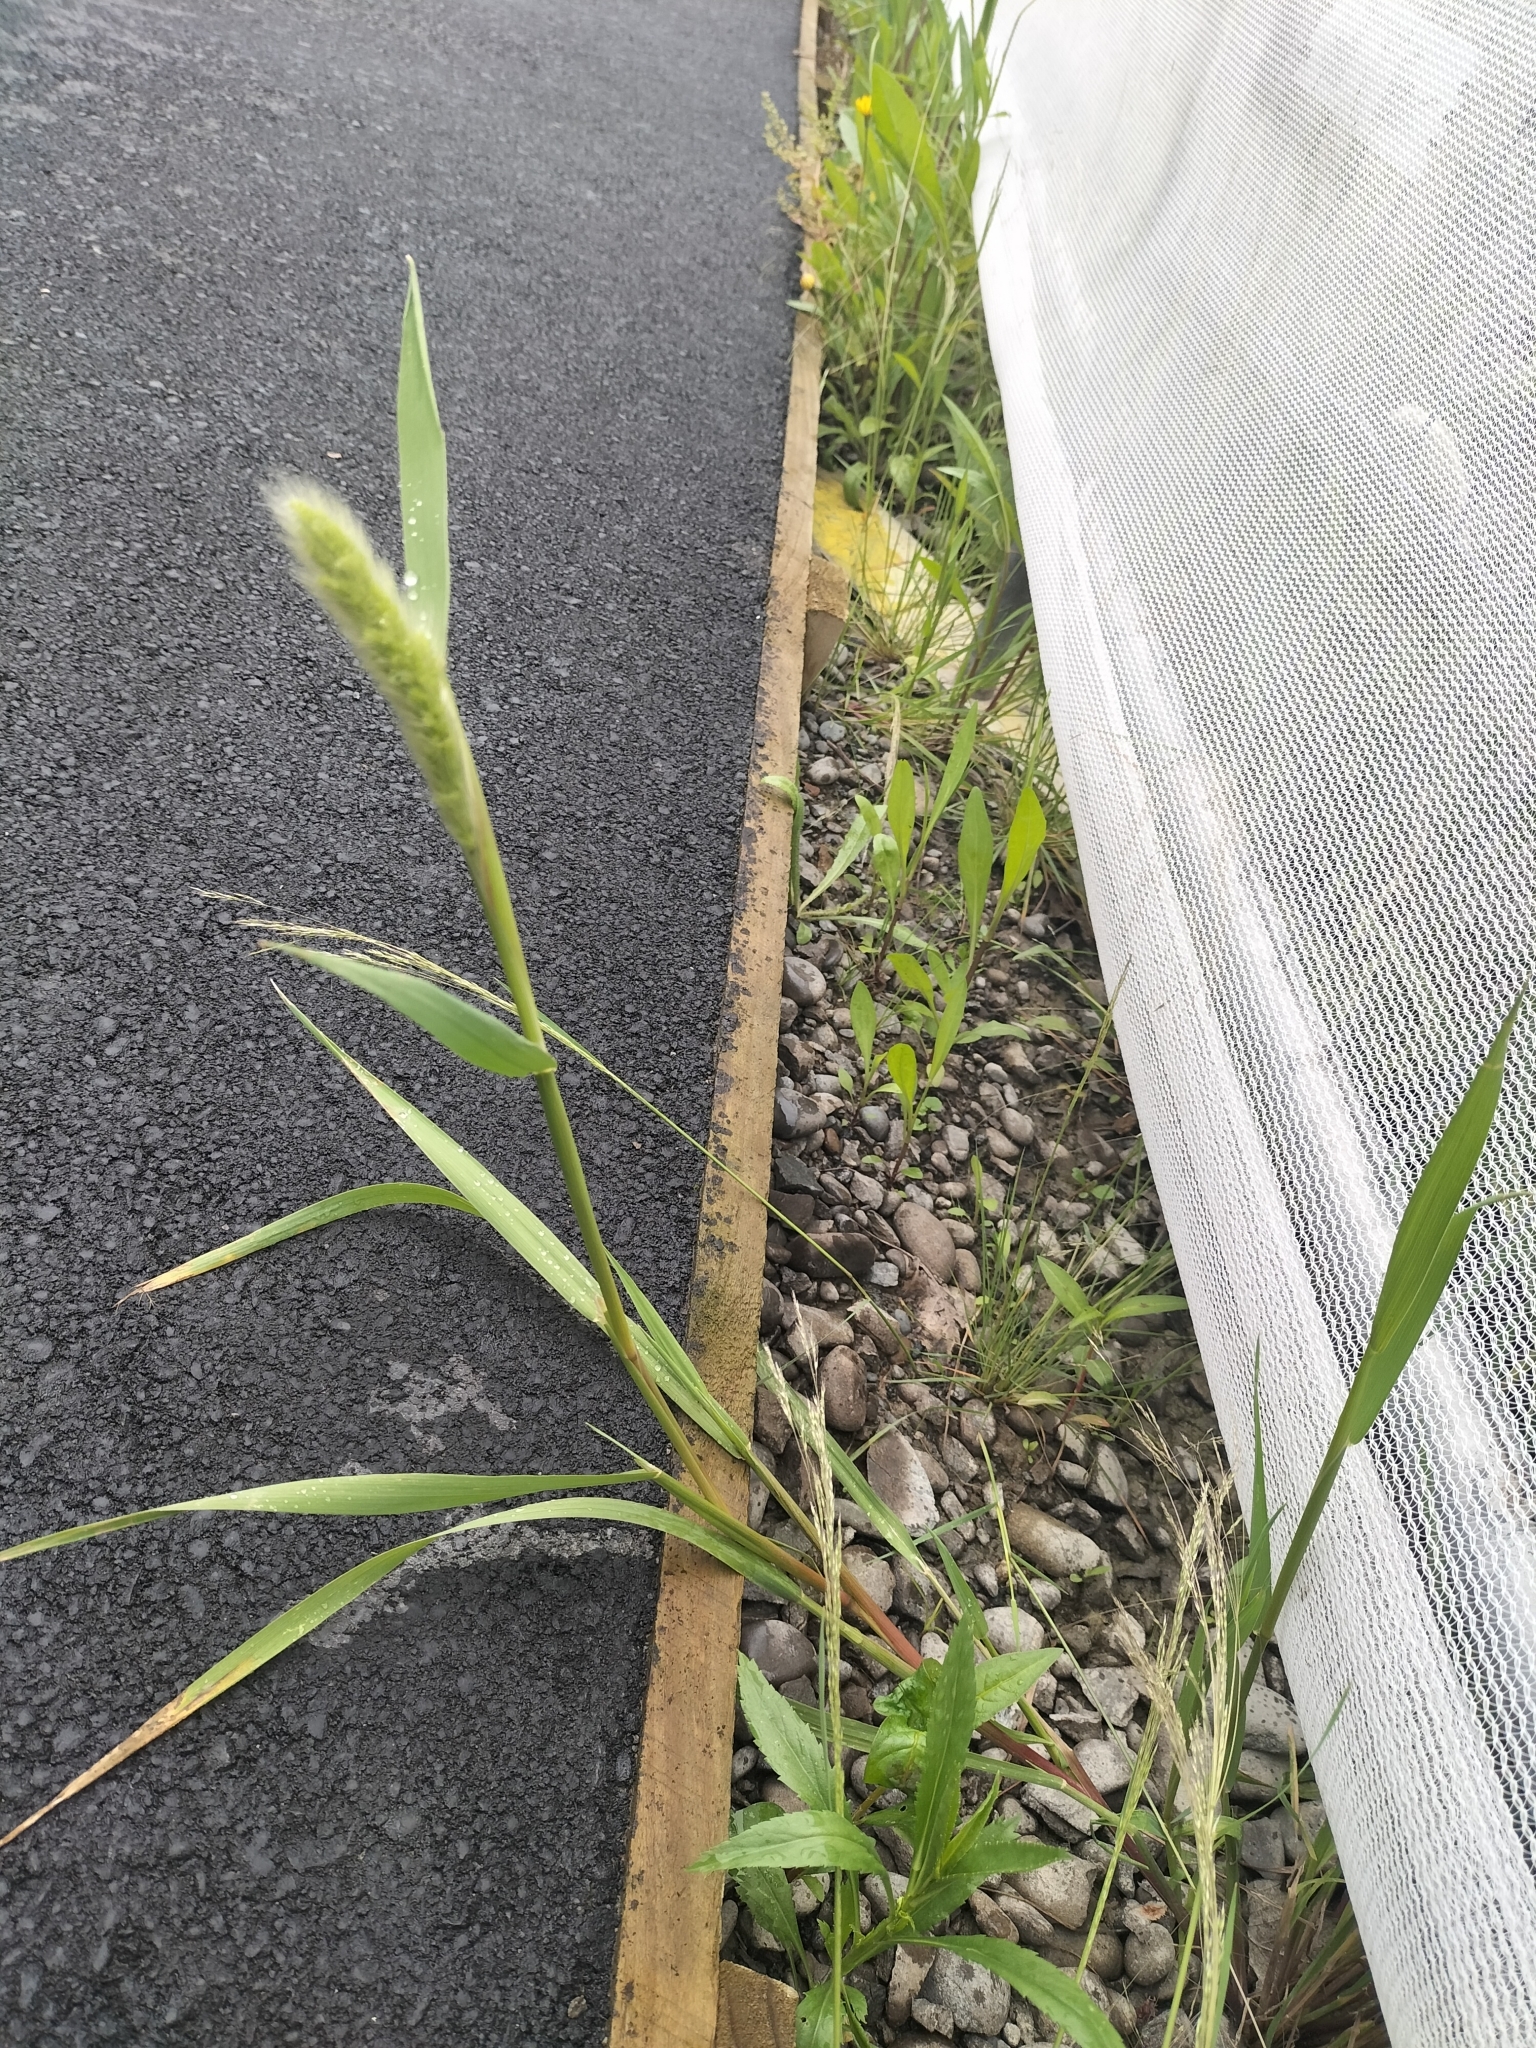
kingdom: Plantae
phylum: Tracheophyta
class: Liliopsida
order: Poales
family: Poaceae
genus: Polypogon
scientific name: Polypogon monspeliensis
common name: Annual rabbitsfoot grass
